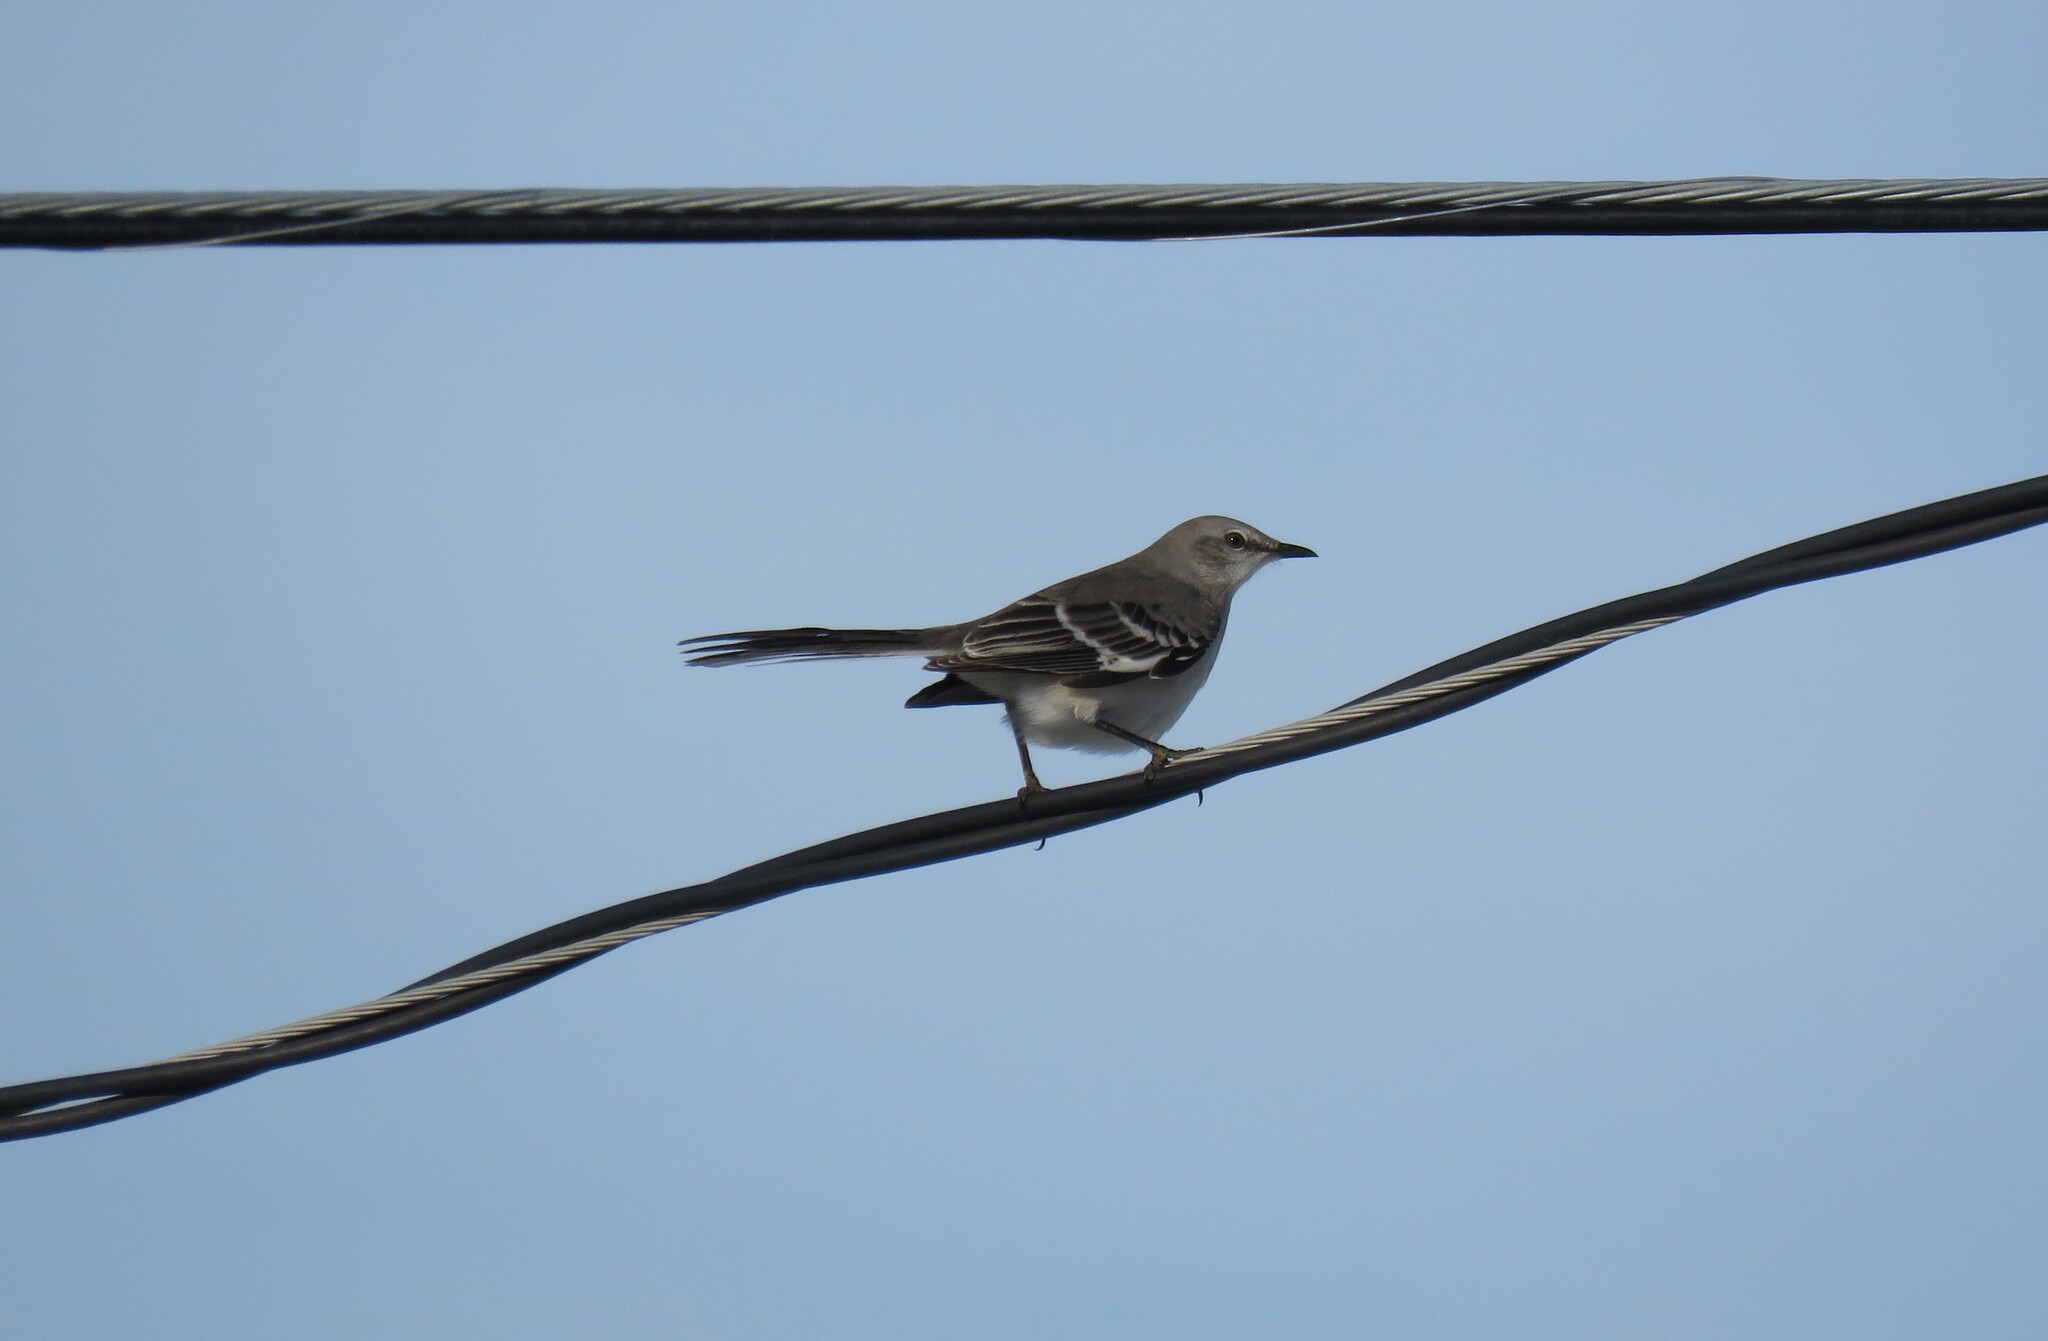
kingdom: Animalia
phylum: Chordata
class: Aves
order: Passeriformes
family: Mimidae
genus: Mimus
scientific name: Mimus polyglottos
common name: Northern mockingbird
